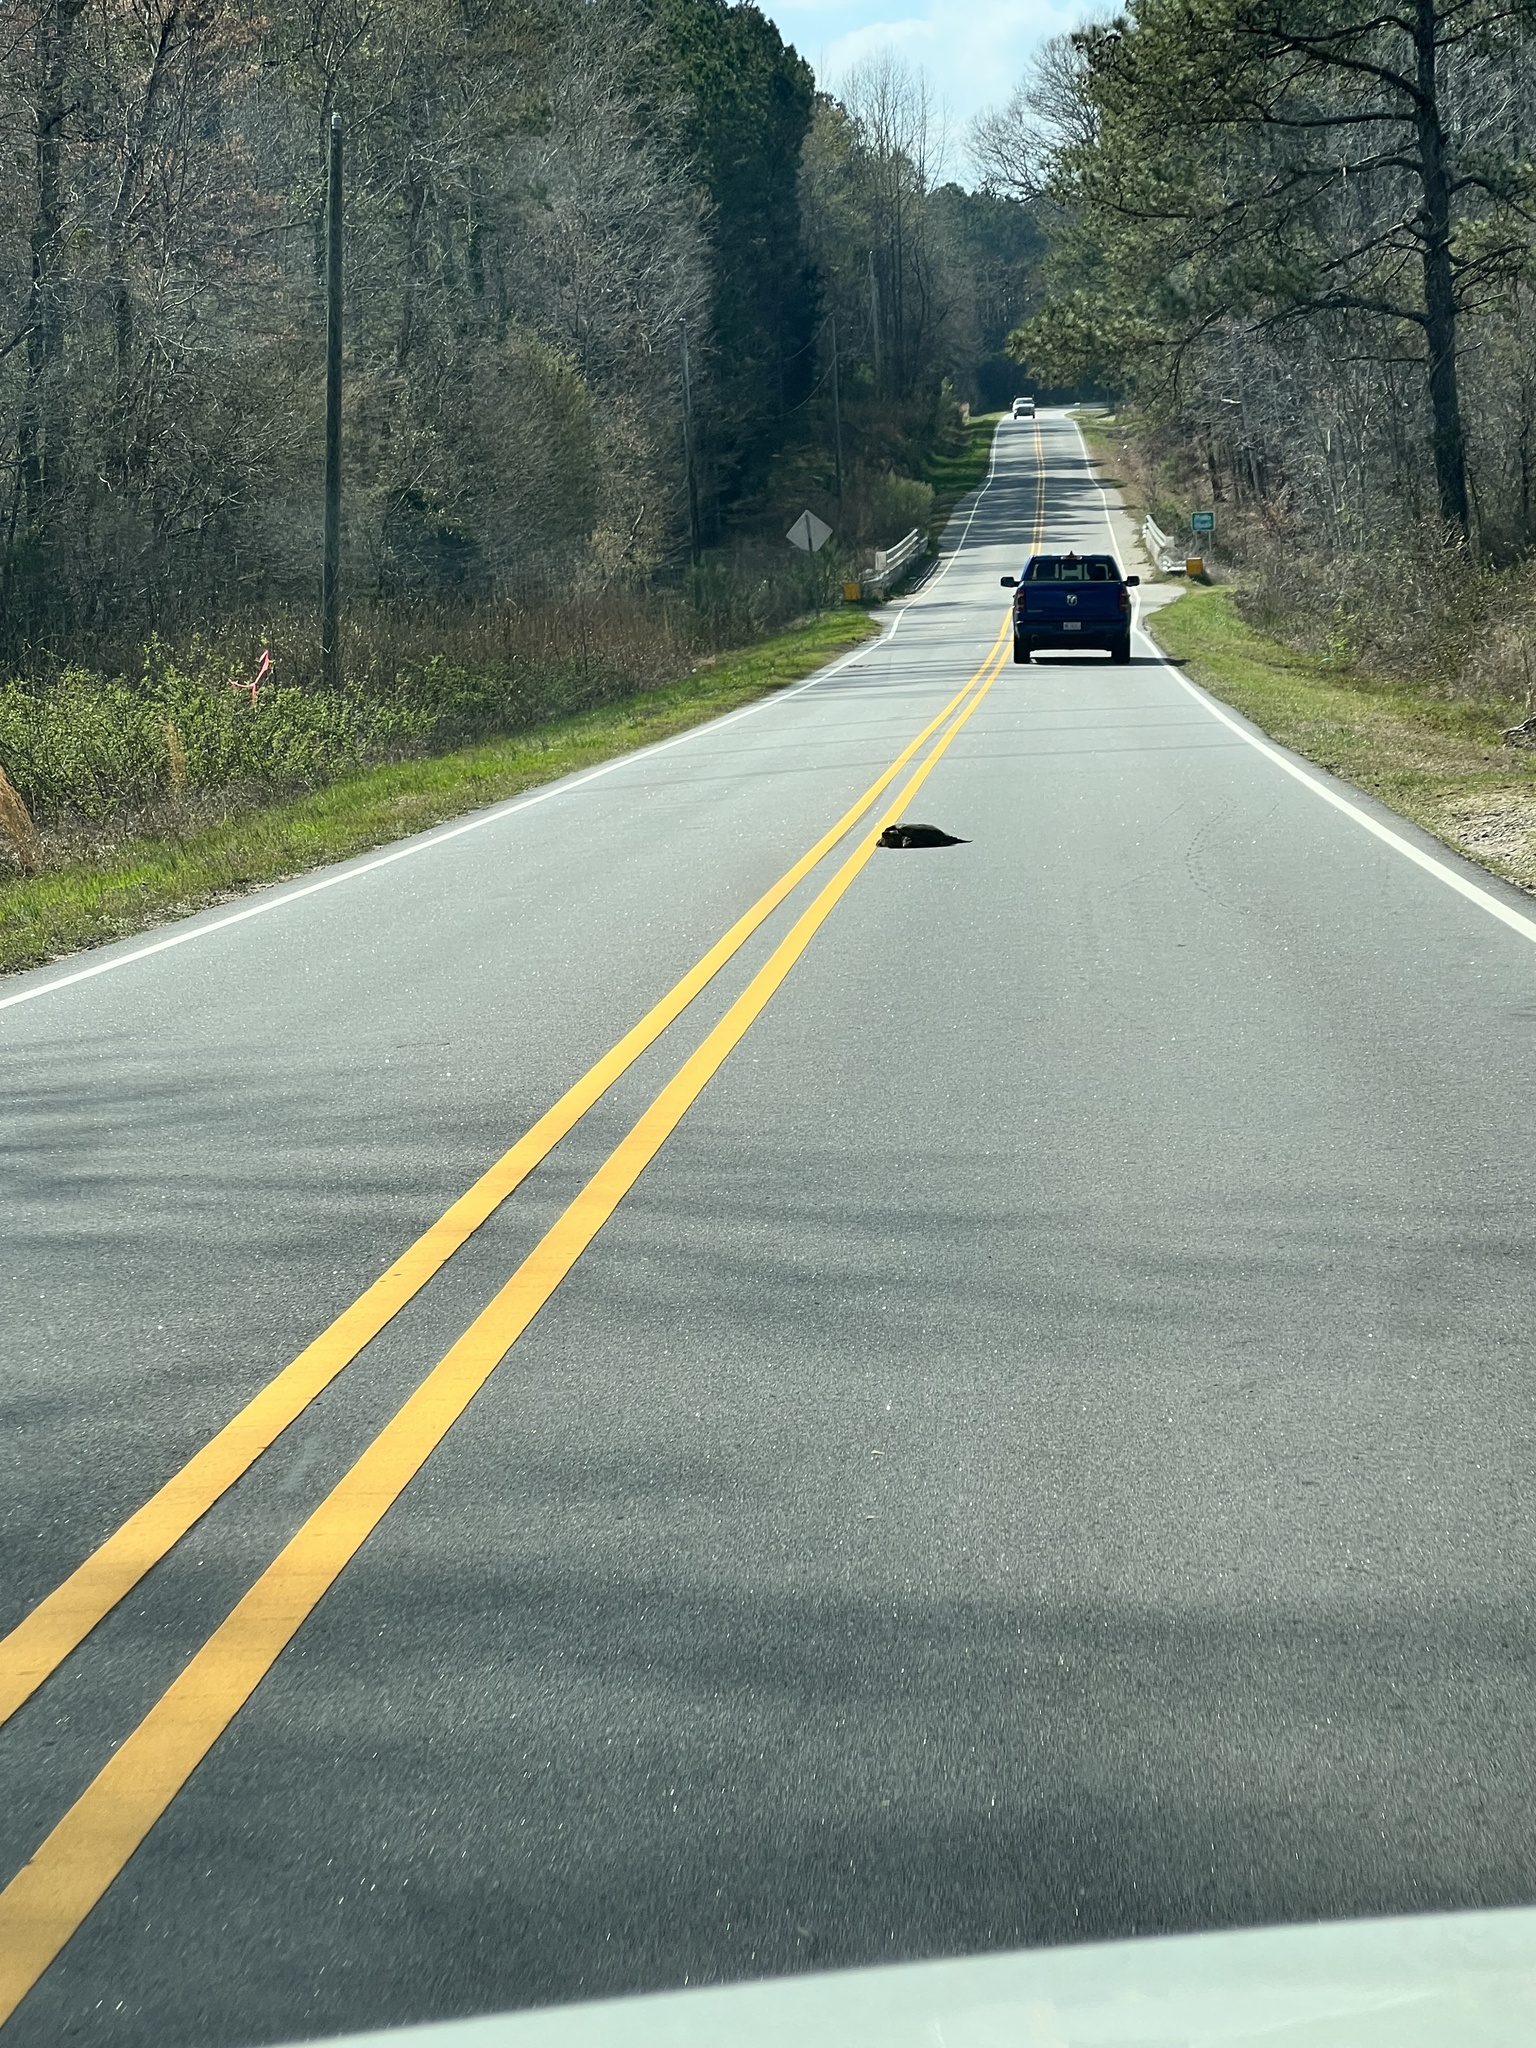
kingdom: Animalia
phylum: Chordata
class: Testudines
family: Chelydridae
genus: Chelydra
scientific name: Chelydra serpentina
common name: Common snapping turtle
